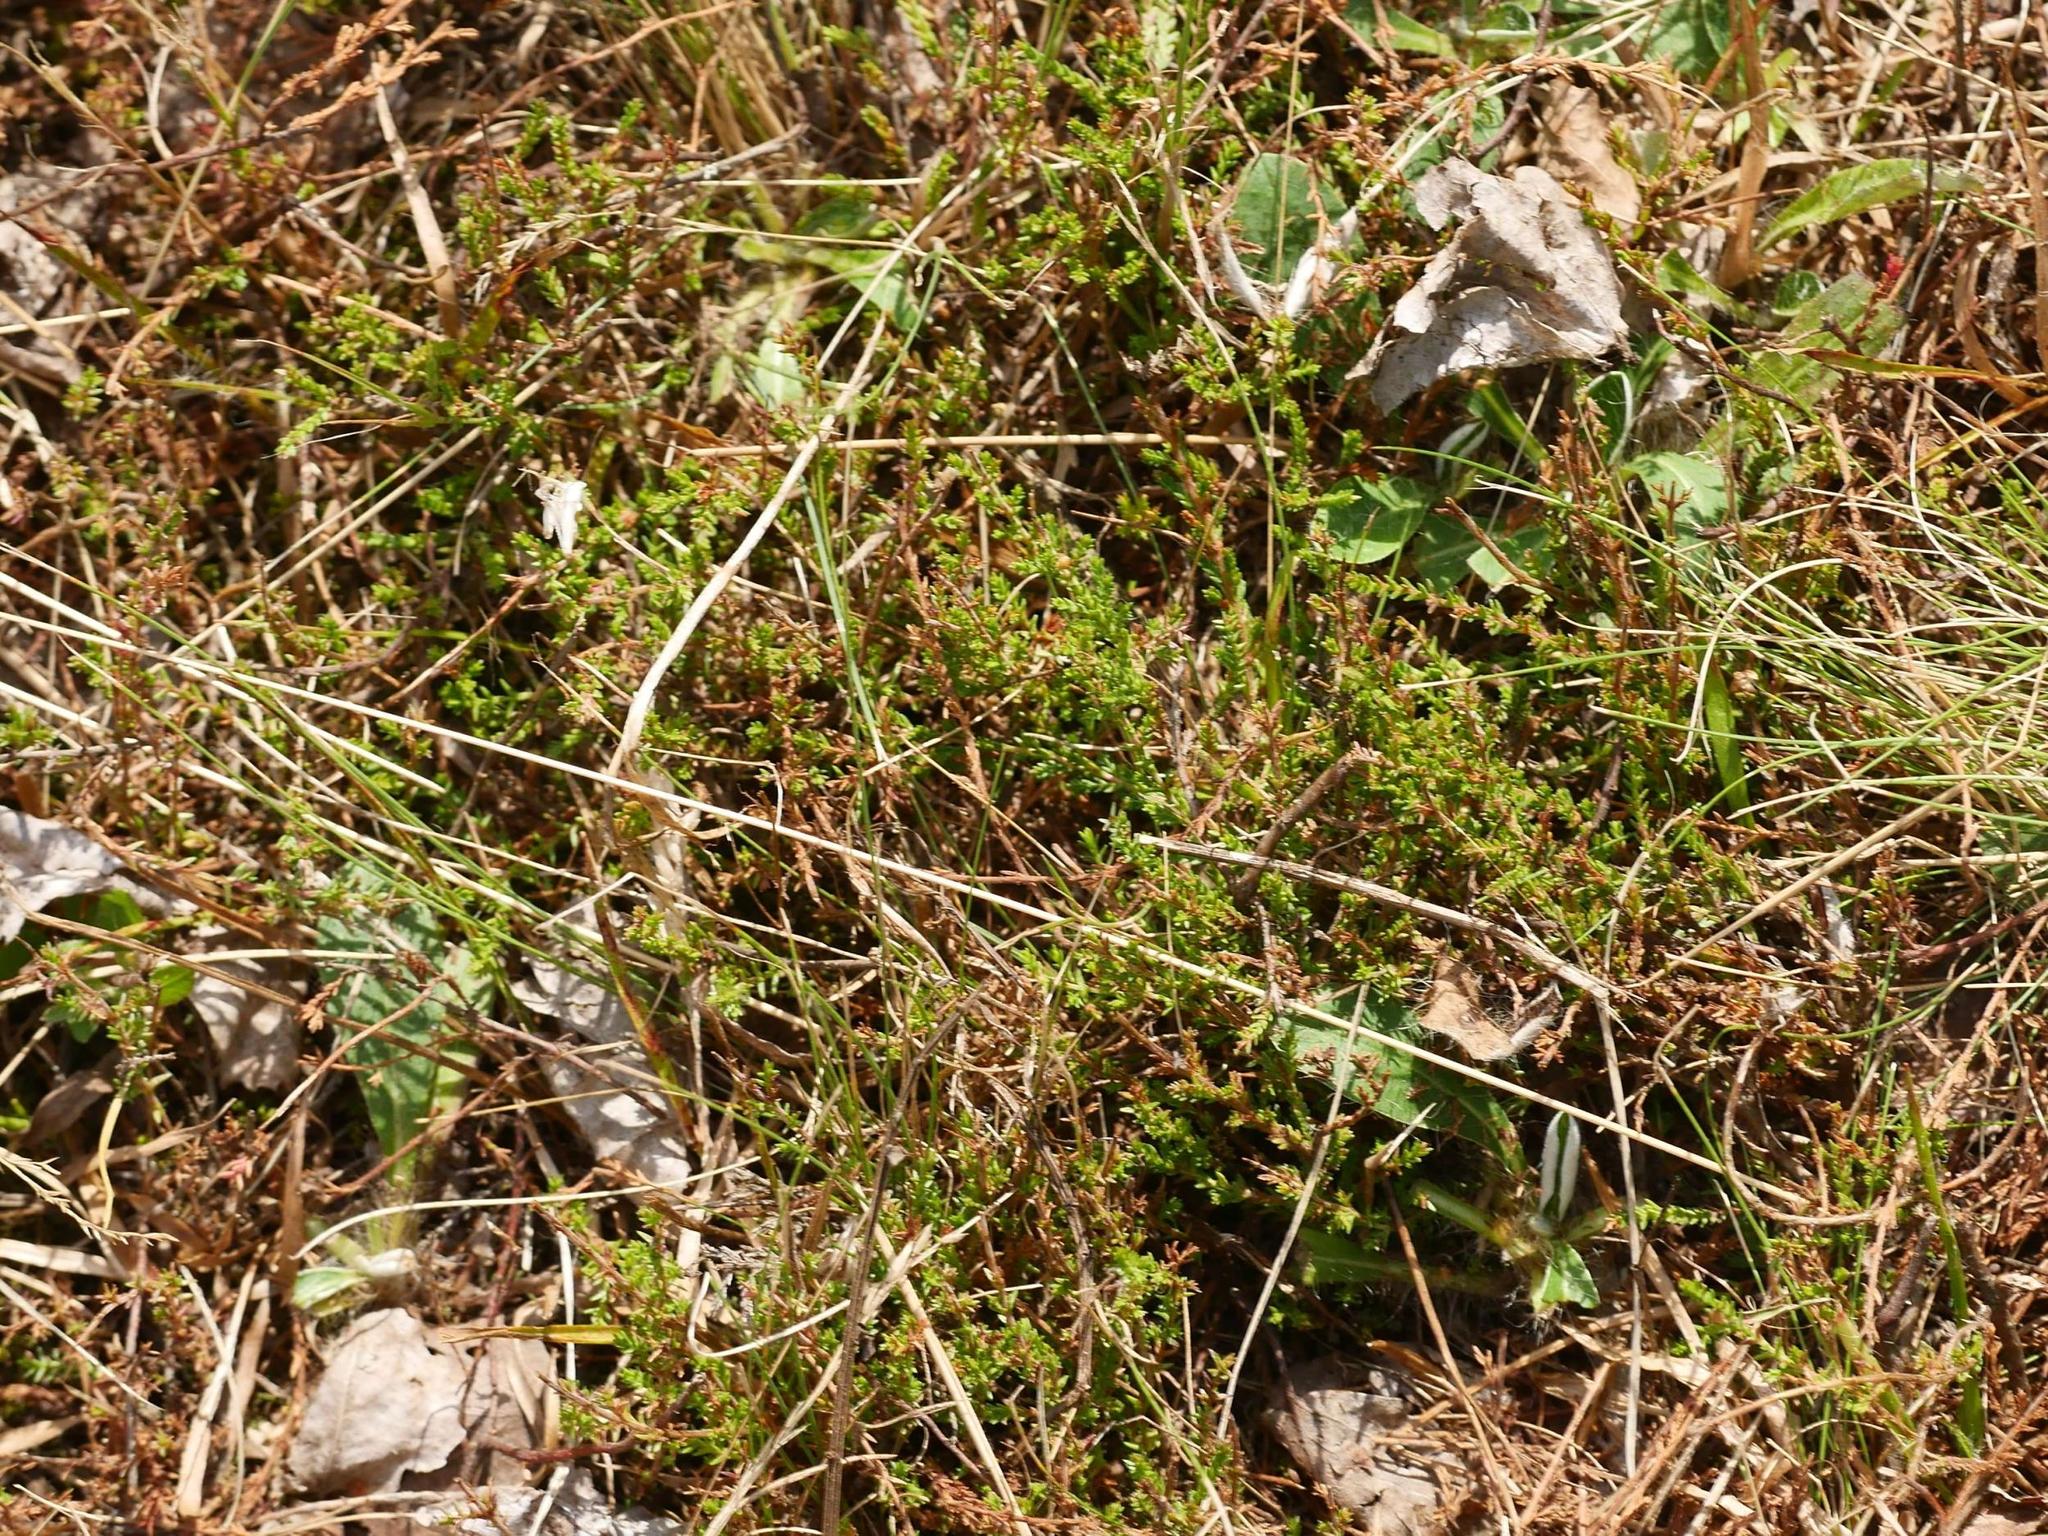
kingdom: Plantae
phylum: Tracheophyta
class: Magnoliopsida
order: Ericales
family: Ericaceae
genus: Calluna
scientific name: Calluna vulgaris
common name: Heather
